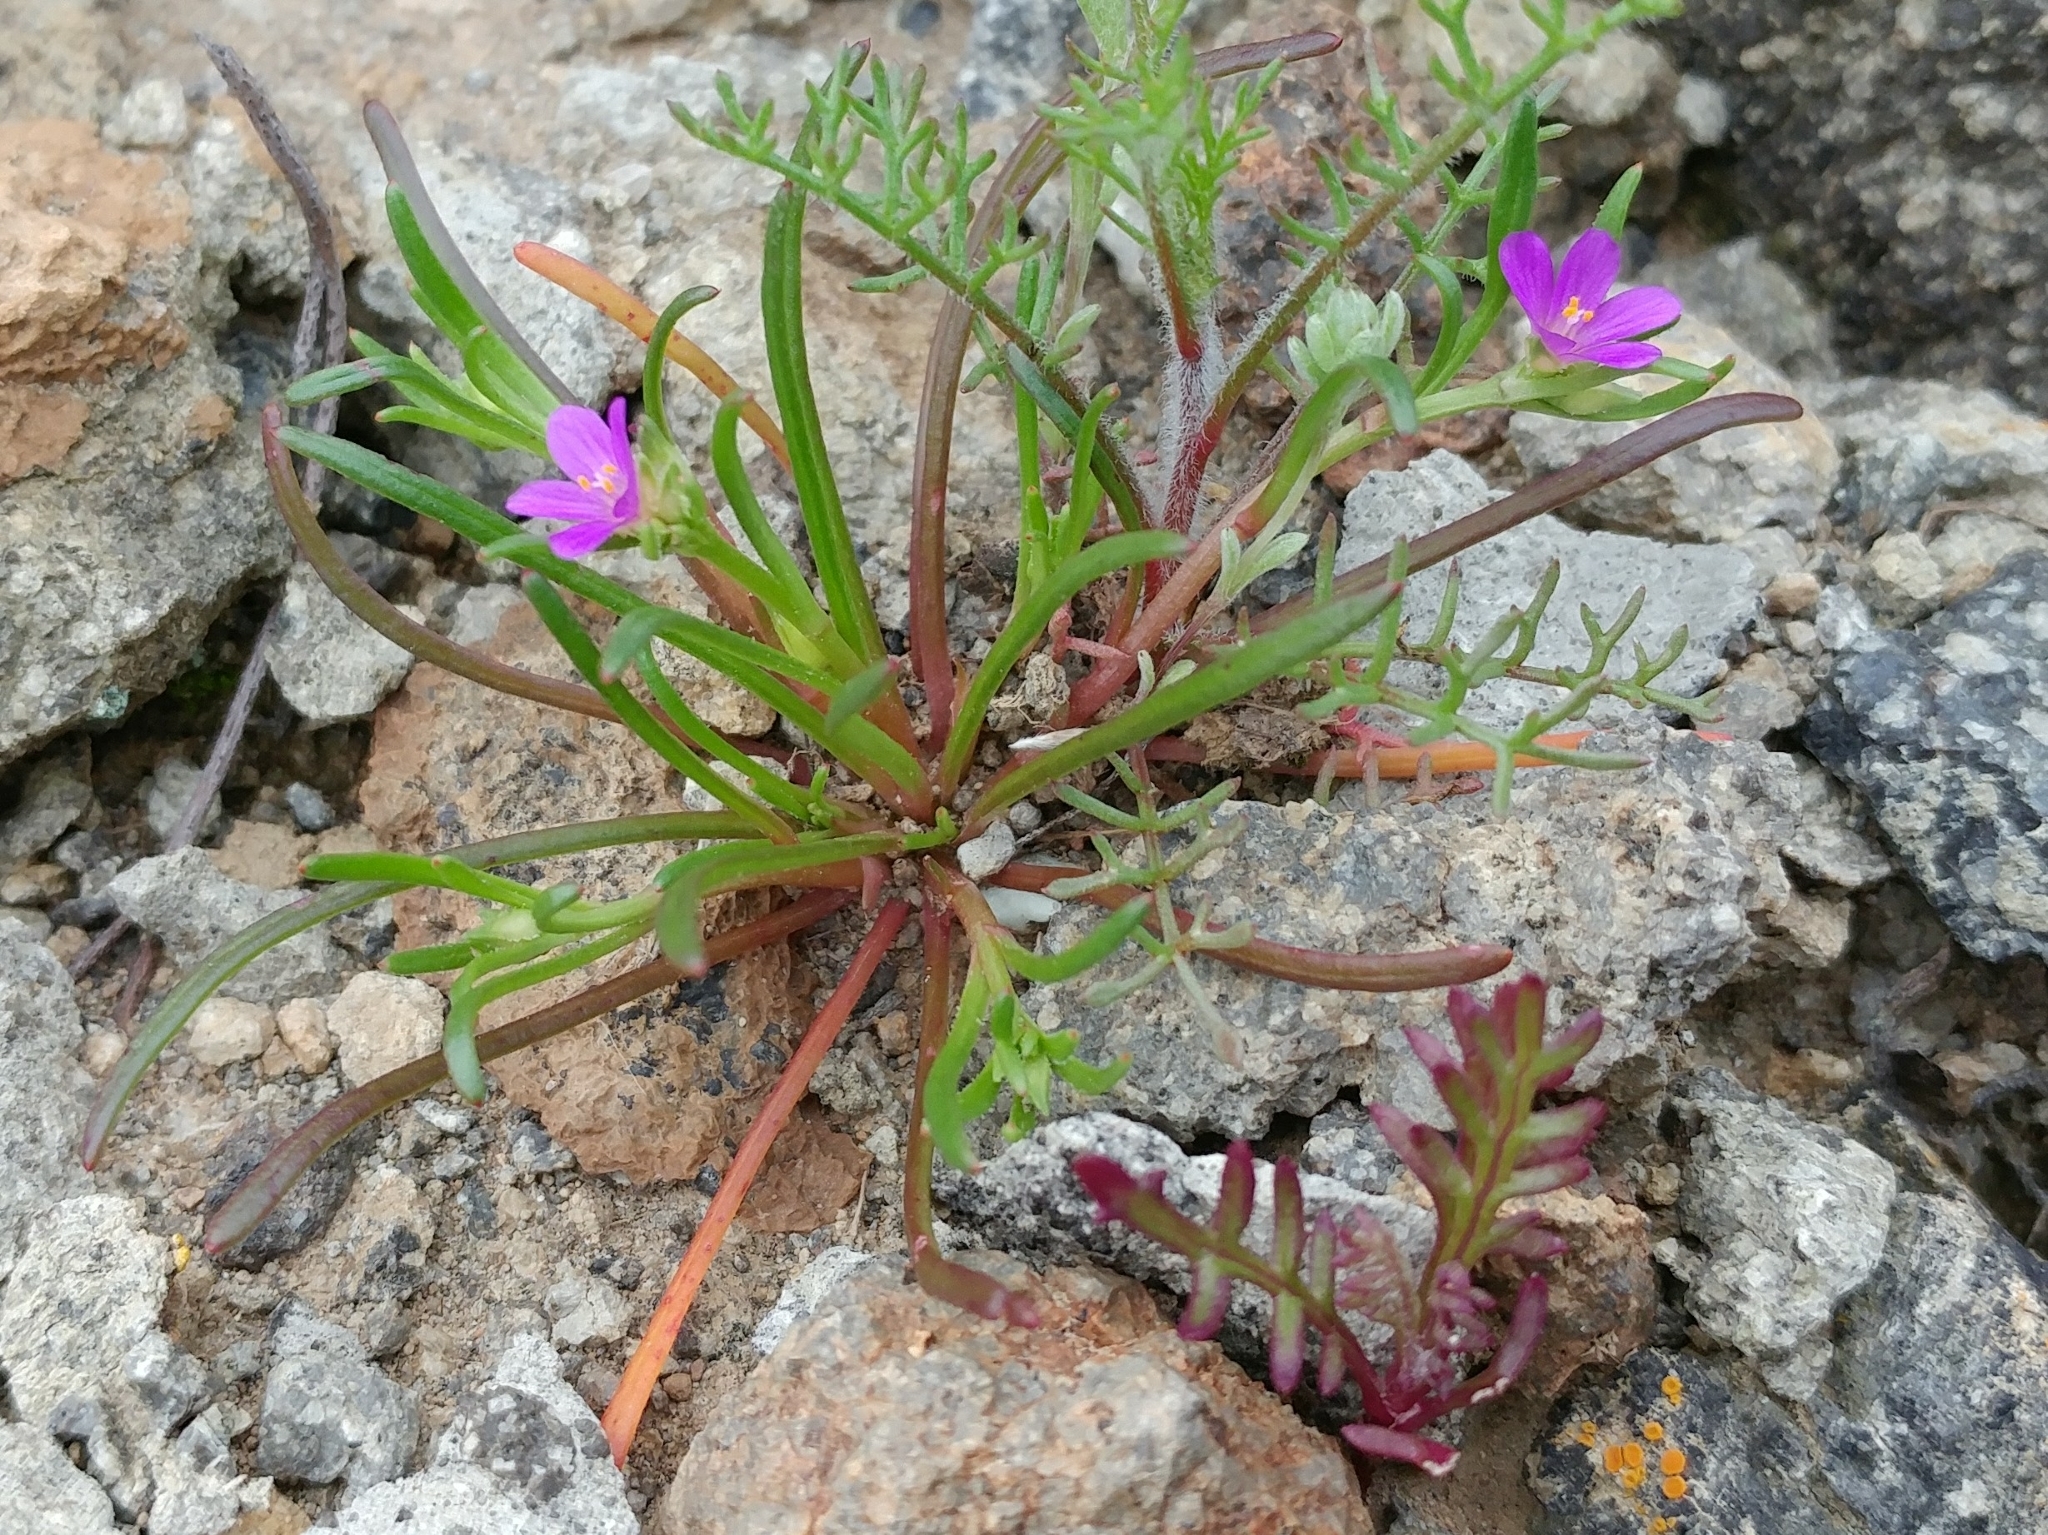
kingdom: Plantae
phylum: Tracheophyta
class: Magnoliopsida
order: Caryophyllales
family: Montiaceae
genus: Calandrinia
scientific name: Calandrinia menziesii
